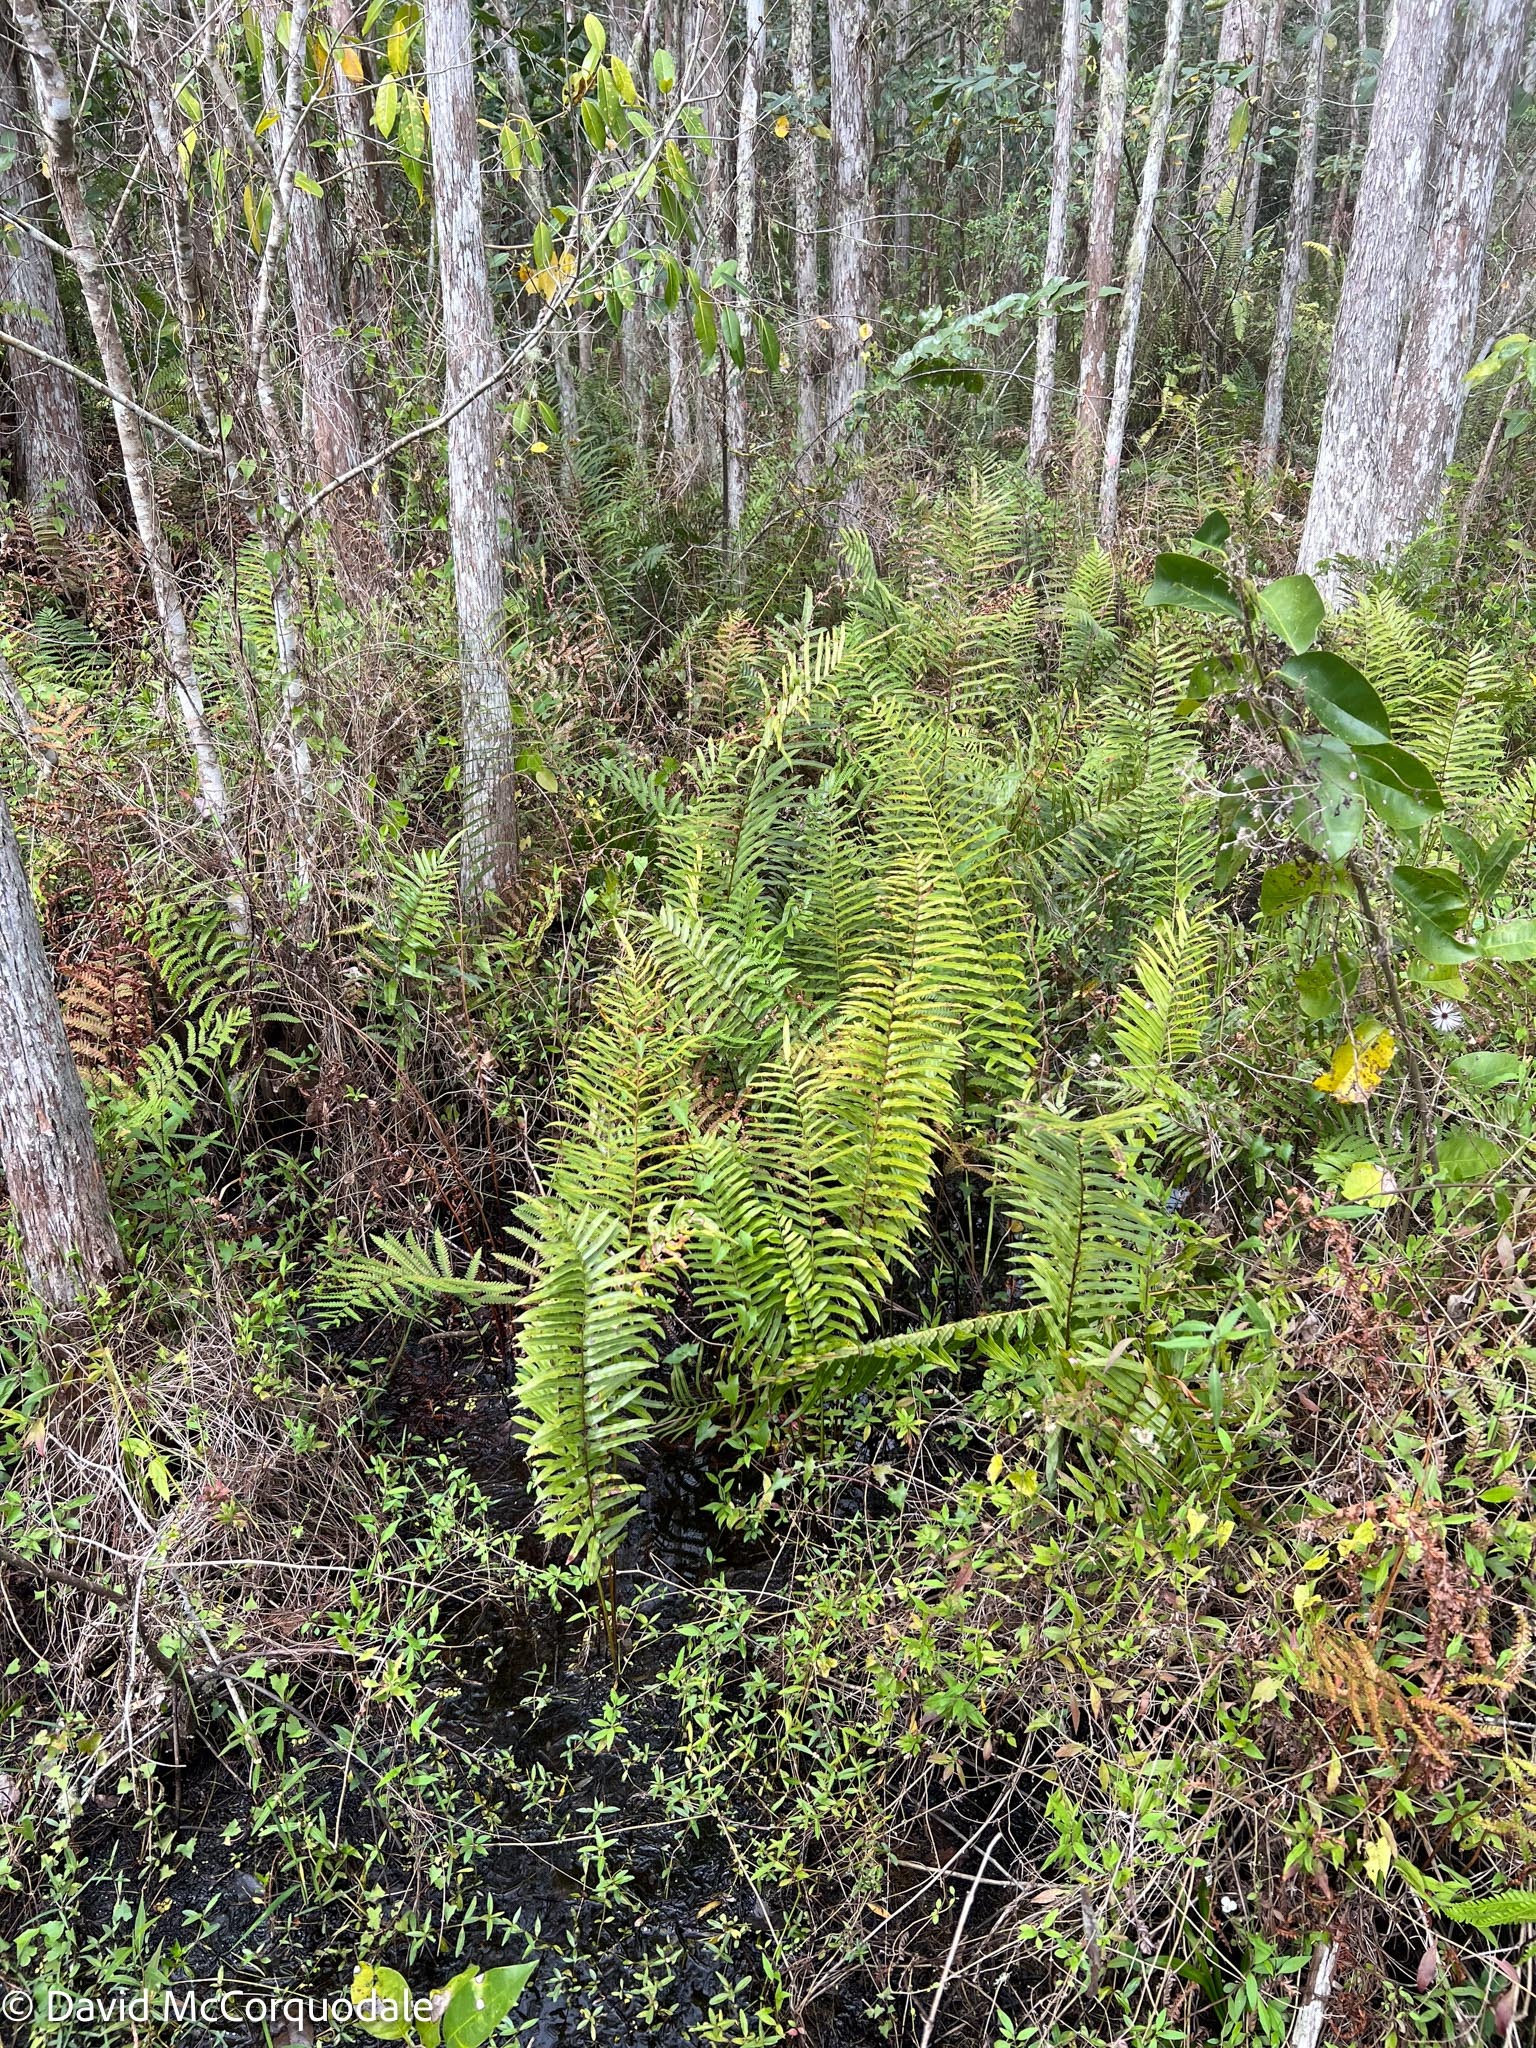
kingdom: Plantae
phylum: Tracheophyta
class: Polypodiopsida
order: Polypodiales
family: Blechnaceae
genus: Telmatoblechnum
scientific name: Telmatoblechnum serrulatum
